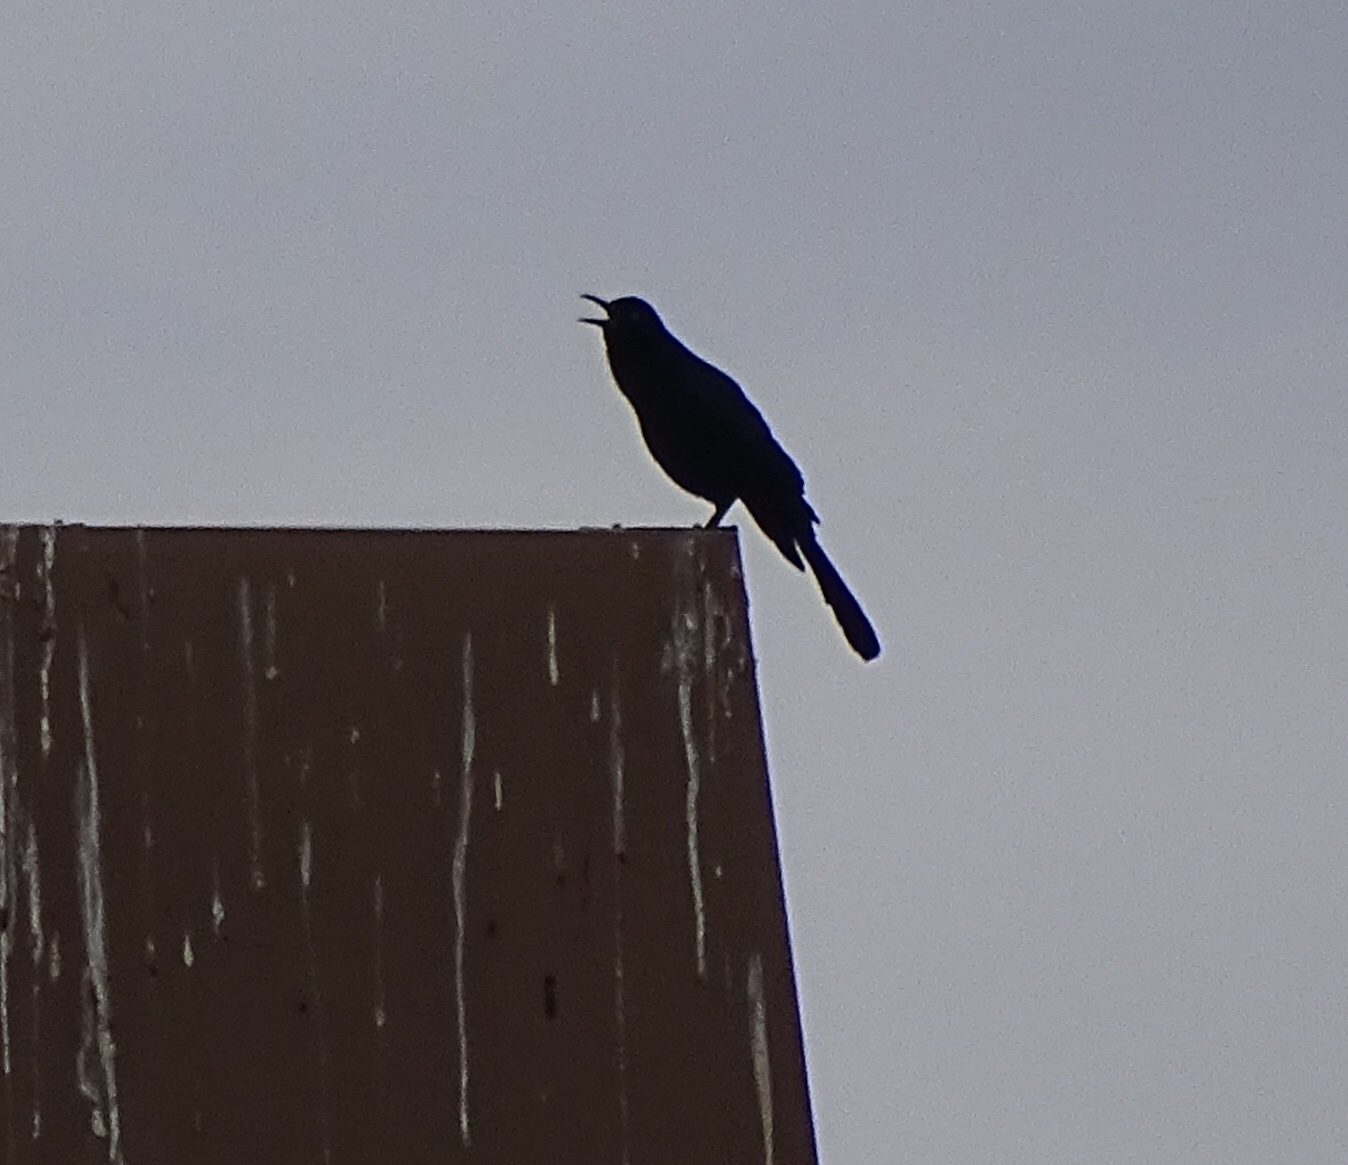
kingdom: Animalia
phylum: Chordata
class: Aves
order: Passeriformes
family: Icteridae
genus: Quiscalus
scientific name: Quiscalus mexicanus
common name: Great-tailed grackle
